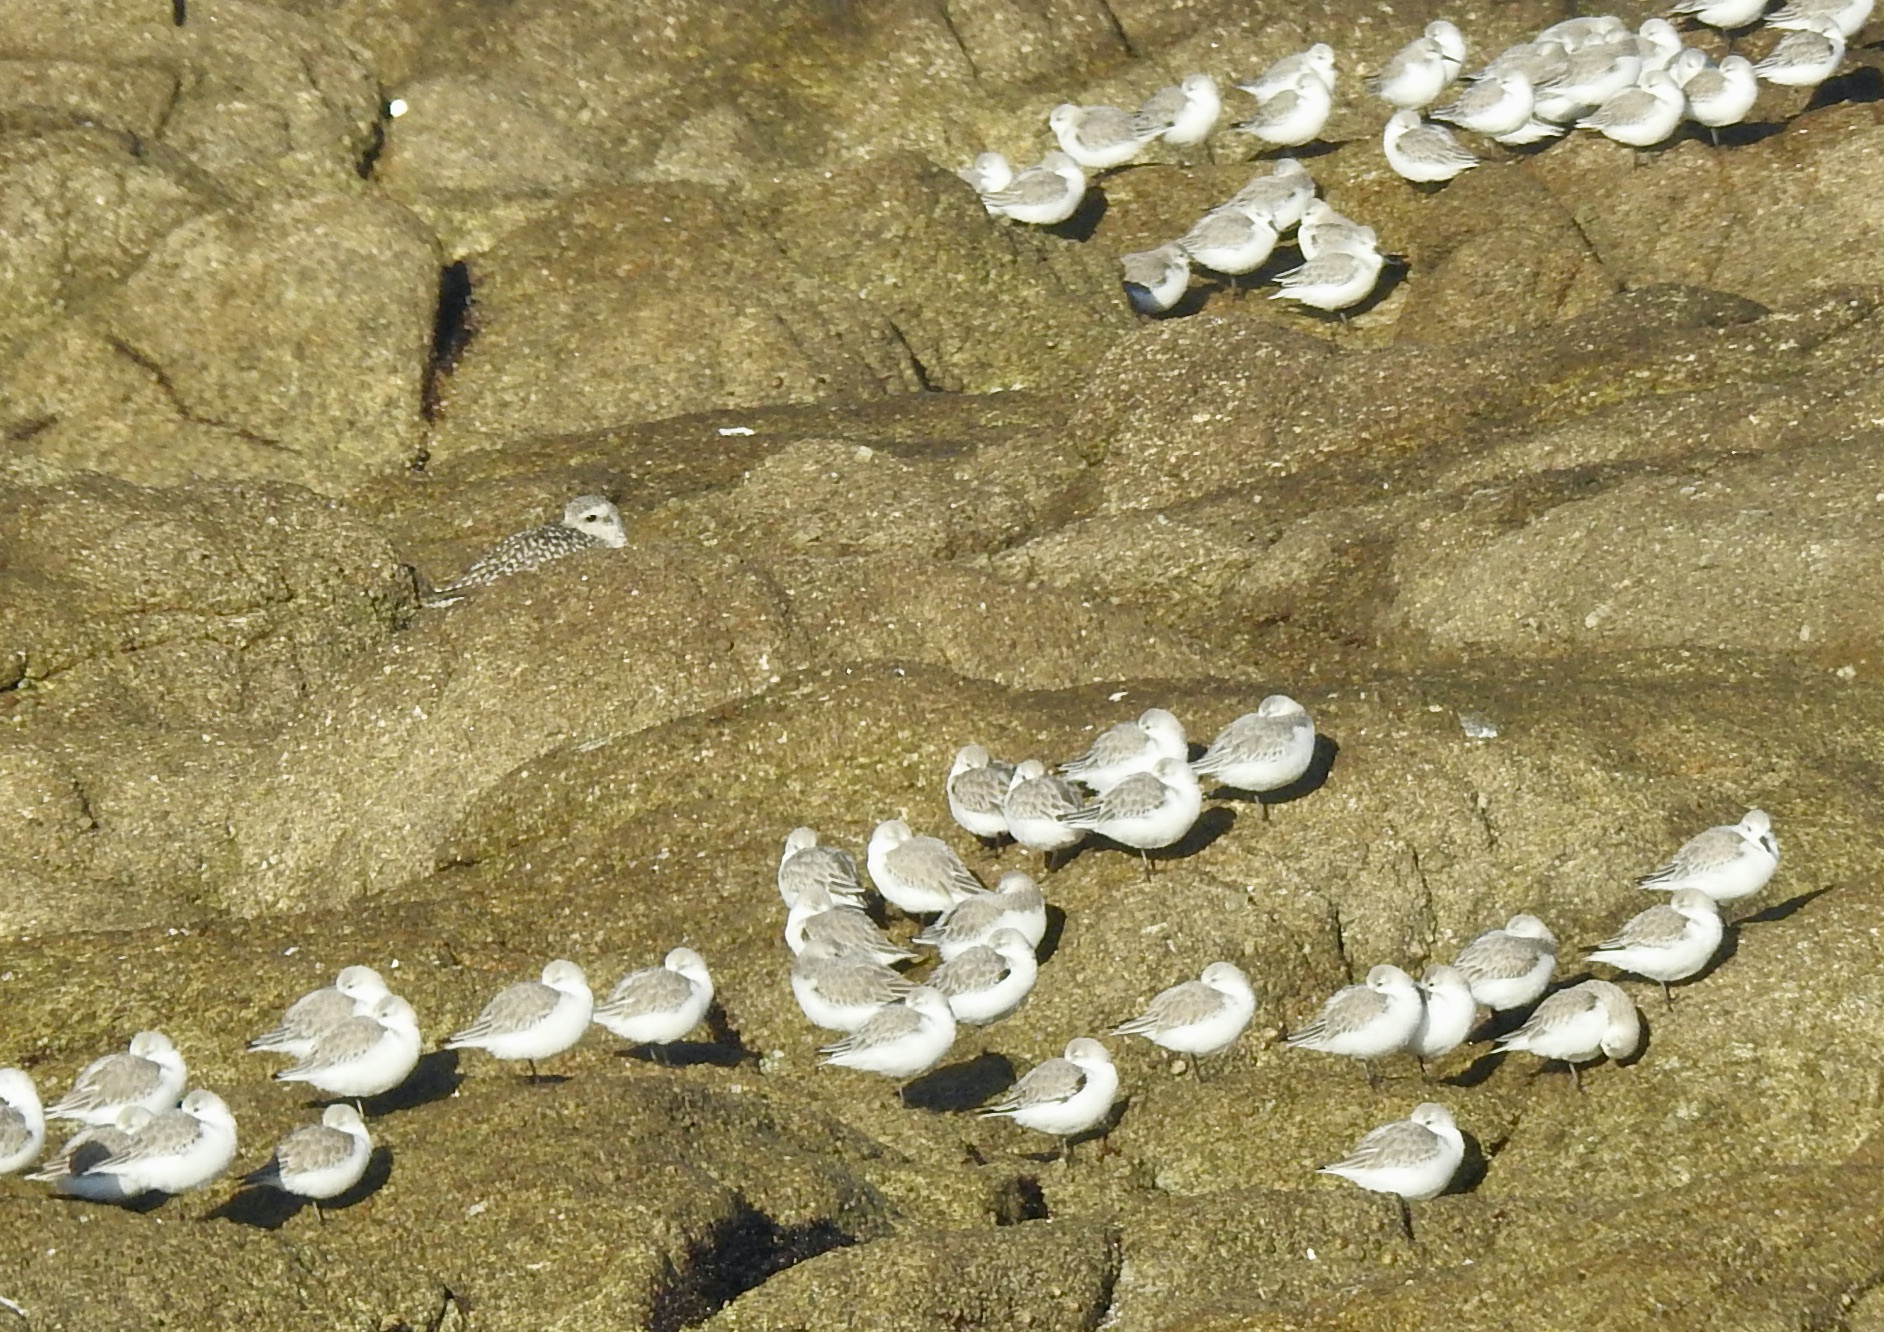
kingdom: Animalia
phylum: Chordata
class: Aves
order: Charadriiformes
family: Scolopacidae
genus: Calidris
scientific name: Calidris alba
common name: Sanderling
